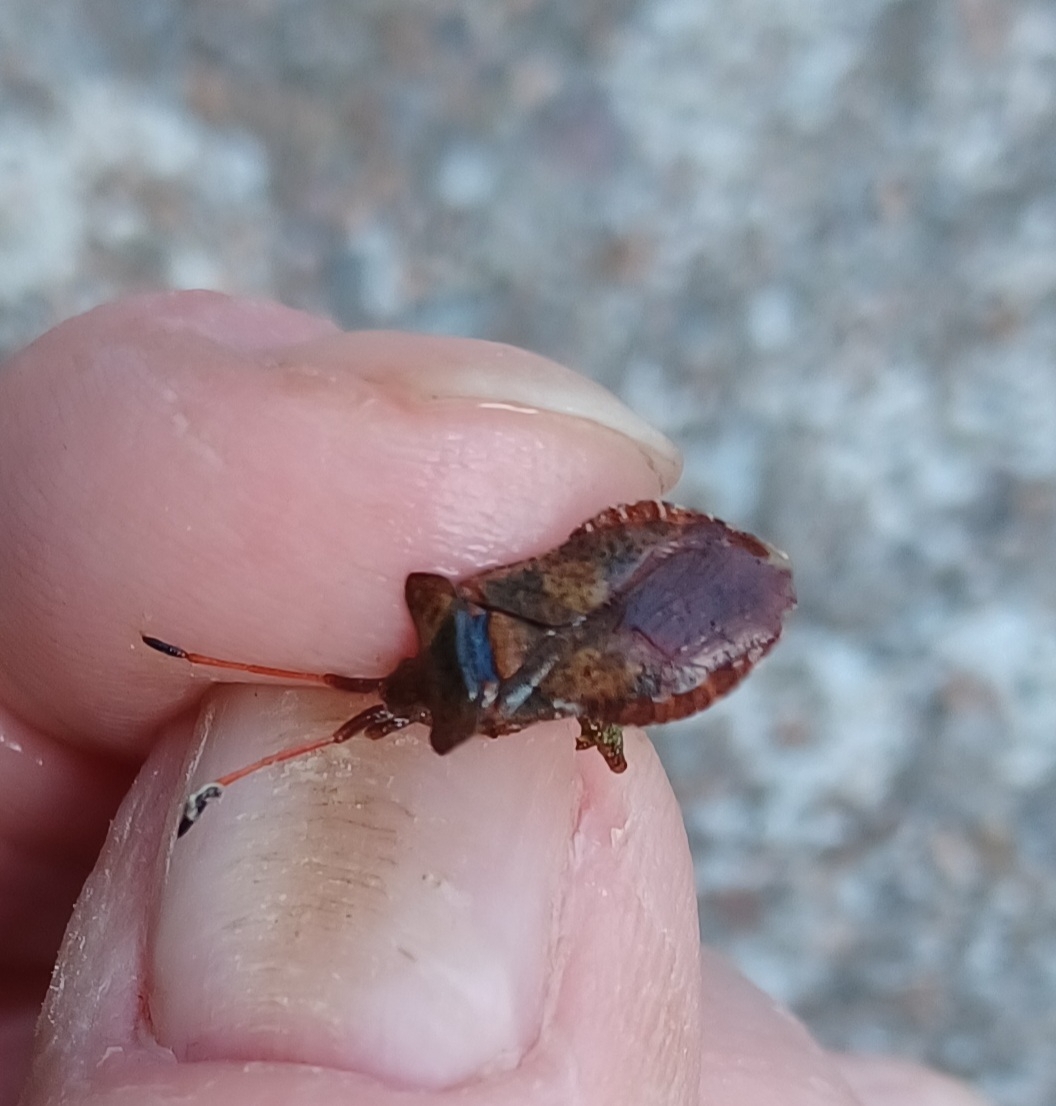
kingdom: Animalia
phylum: Arthropoda
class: Insecta
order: Hemiptera
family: Coreidae
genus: Coreus
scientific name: Coreus marginatus
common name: Dock bug
